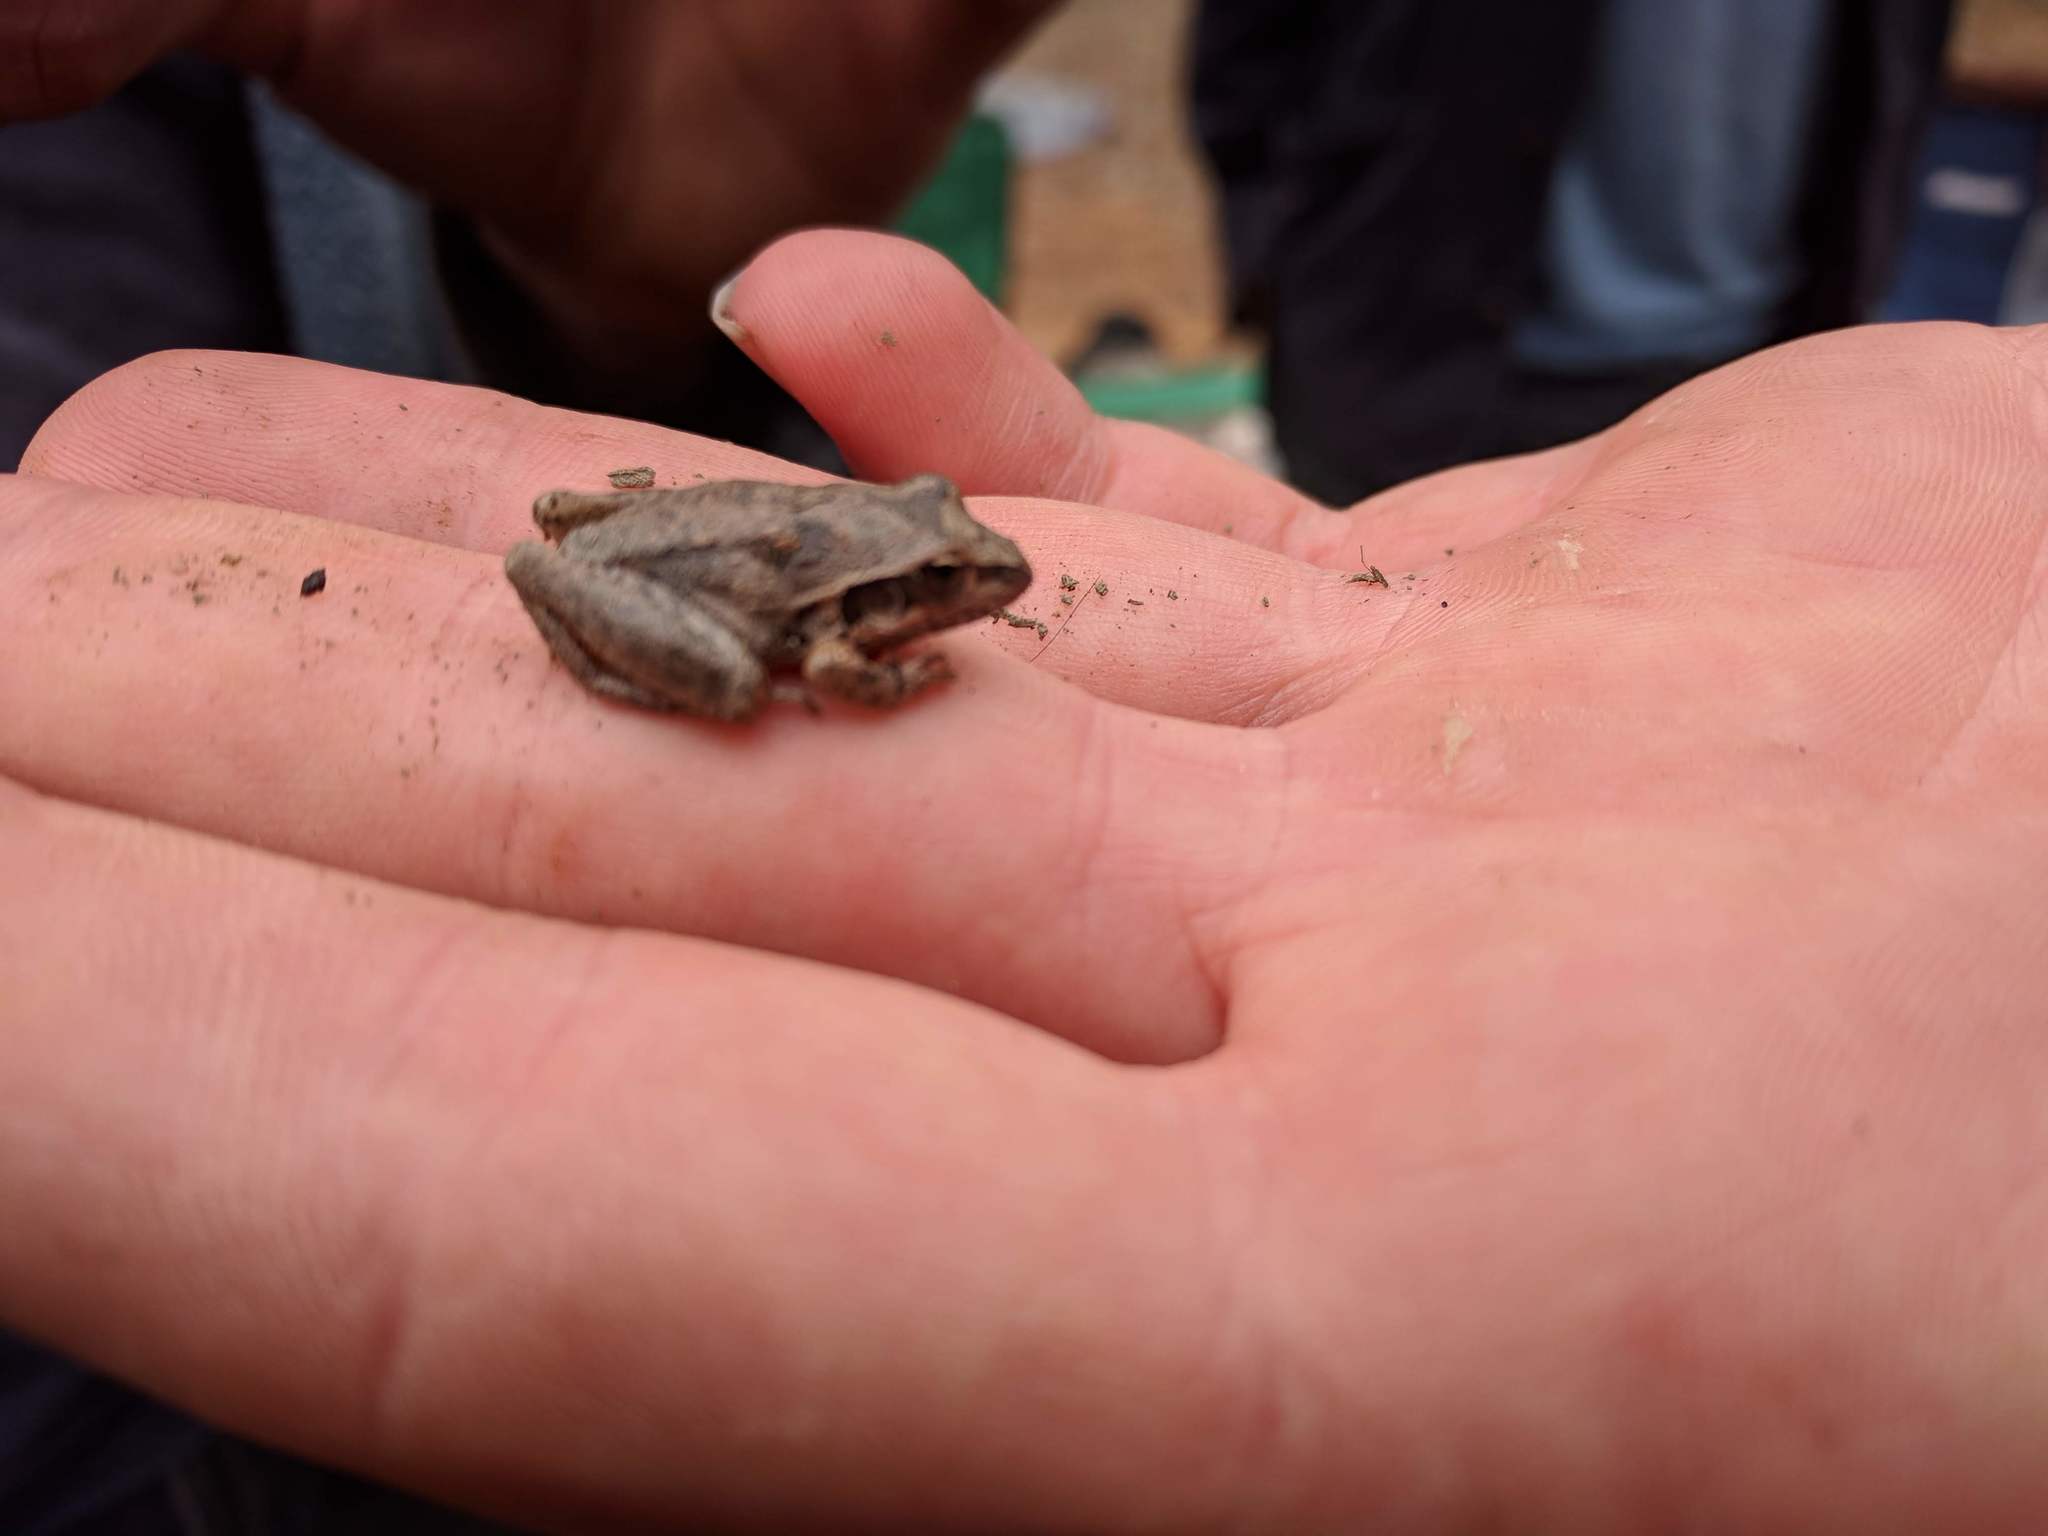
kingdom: Animalia
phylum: Chordata
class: Amphibia
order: Anura
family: Pelodryadidae
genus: Litoria
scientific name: Litoria latopalmata
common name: Broad-palmed rocket frog
